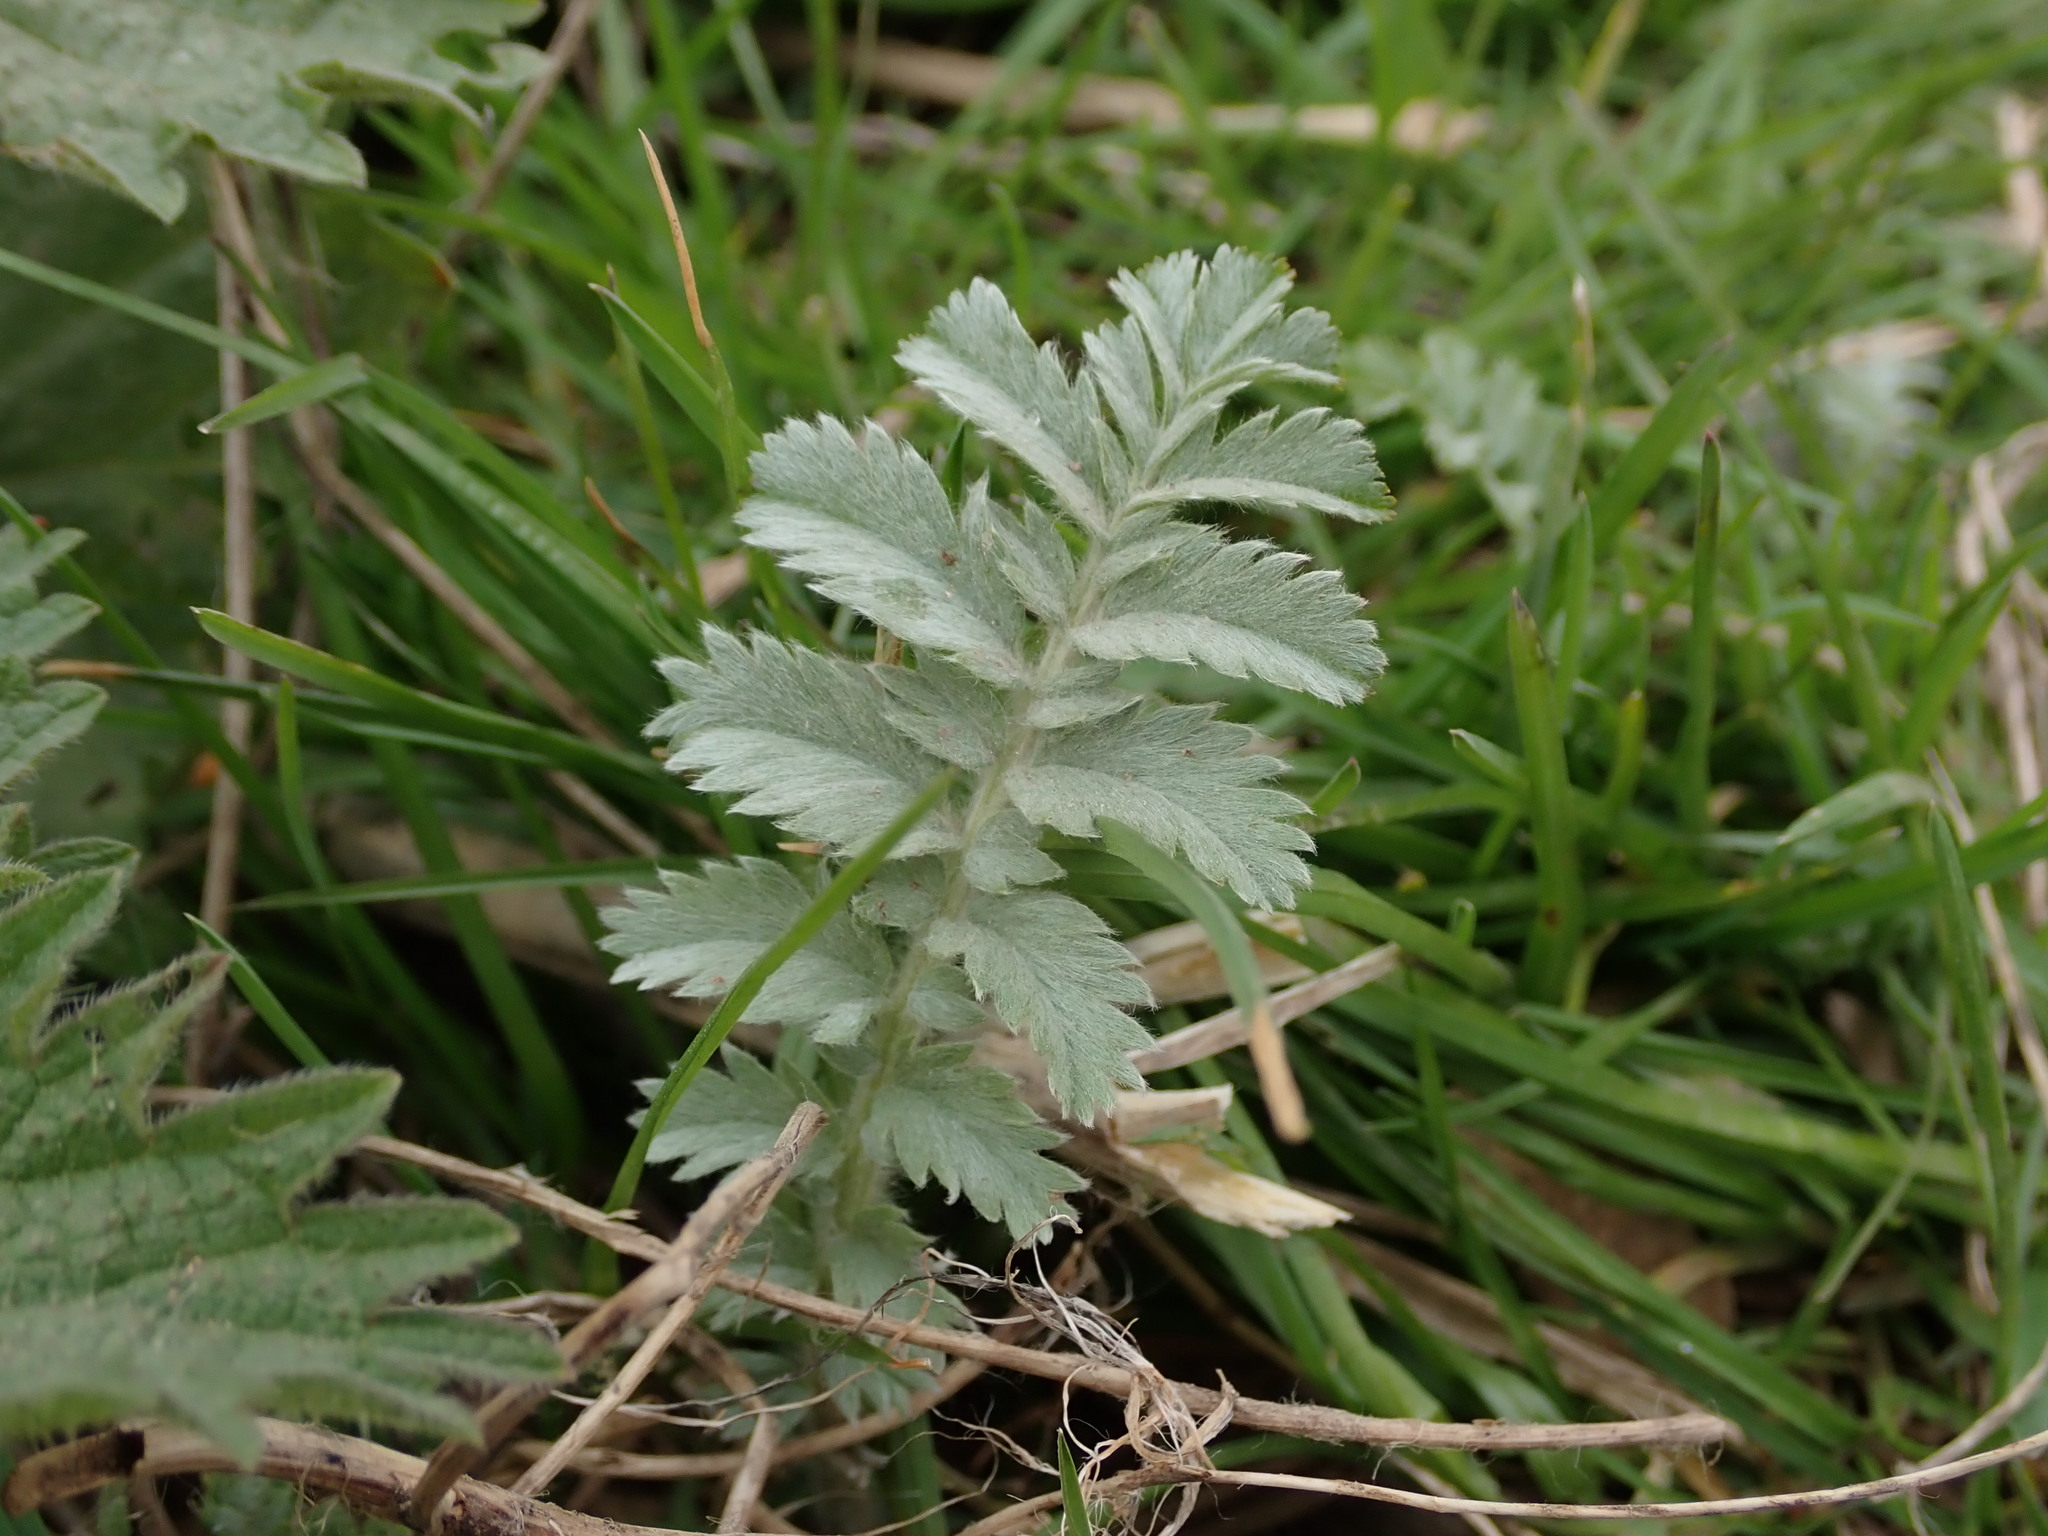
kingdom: Plantae
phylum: Tracheophyta
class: Magnoliopsida
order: Rosales
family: Rosaceae
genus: Argentina
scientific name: Argentina anserina
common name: Common silverweed
